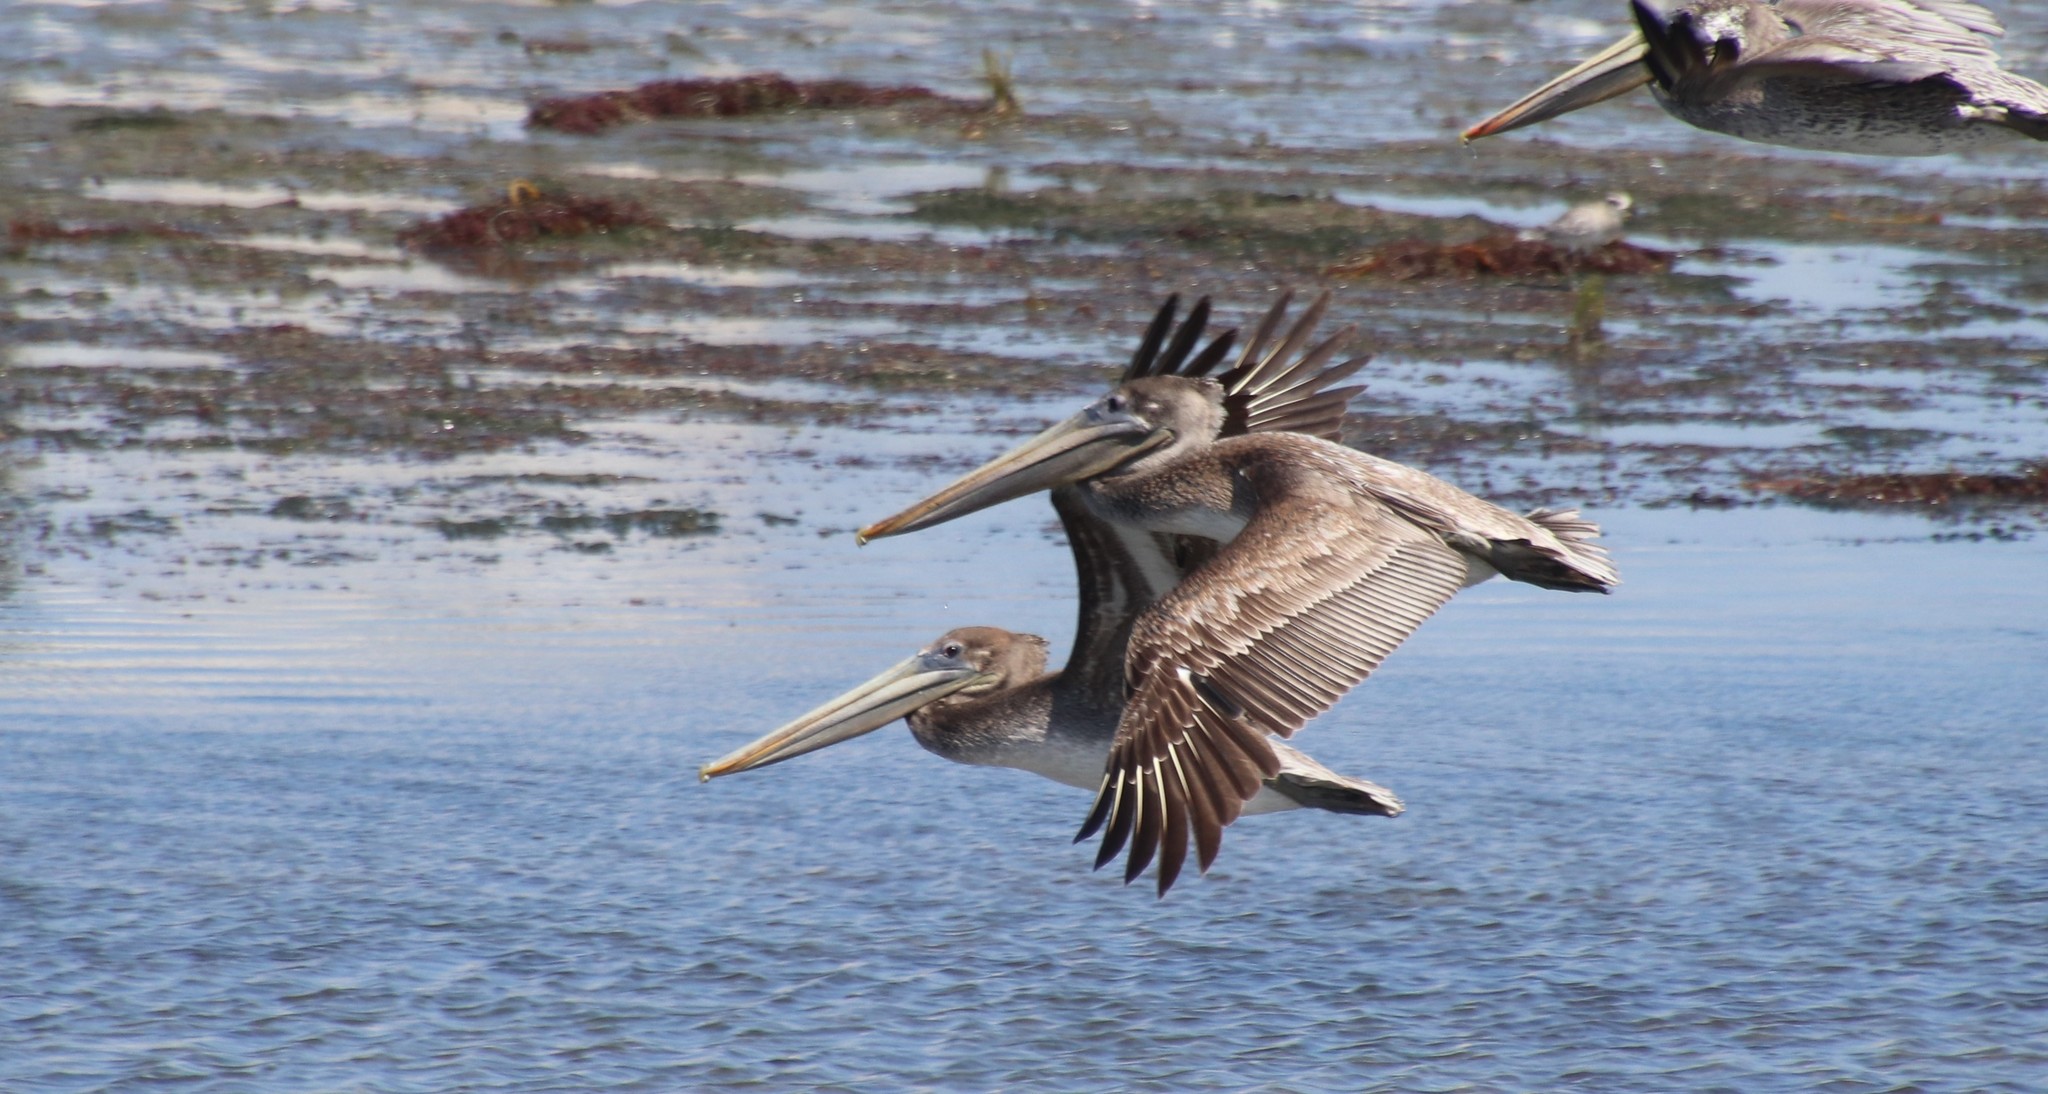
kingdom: Animalia
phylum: Chordata
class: Aves
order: Pelecaniformes
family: Pelecanidae
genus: Pelecanus
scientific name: Pelecanus occidentalis
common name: Brown pelican
